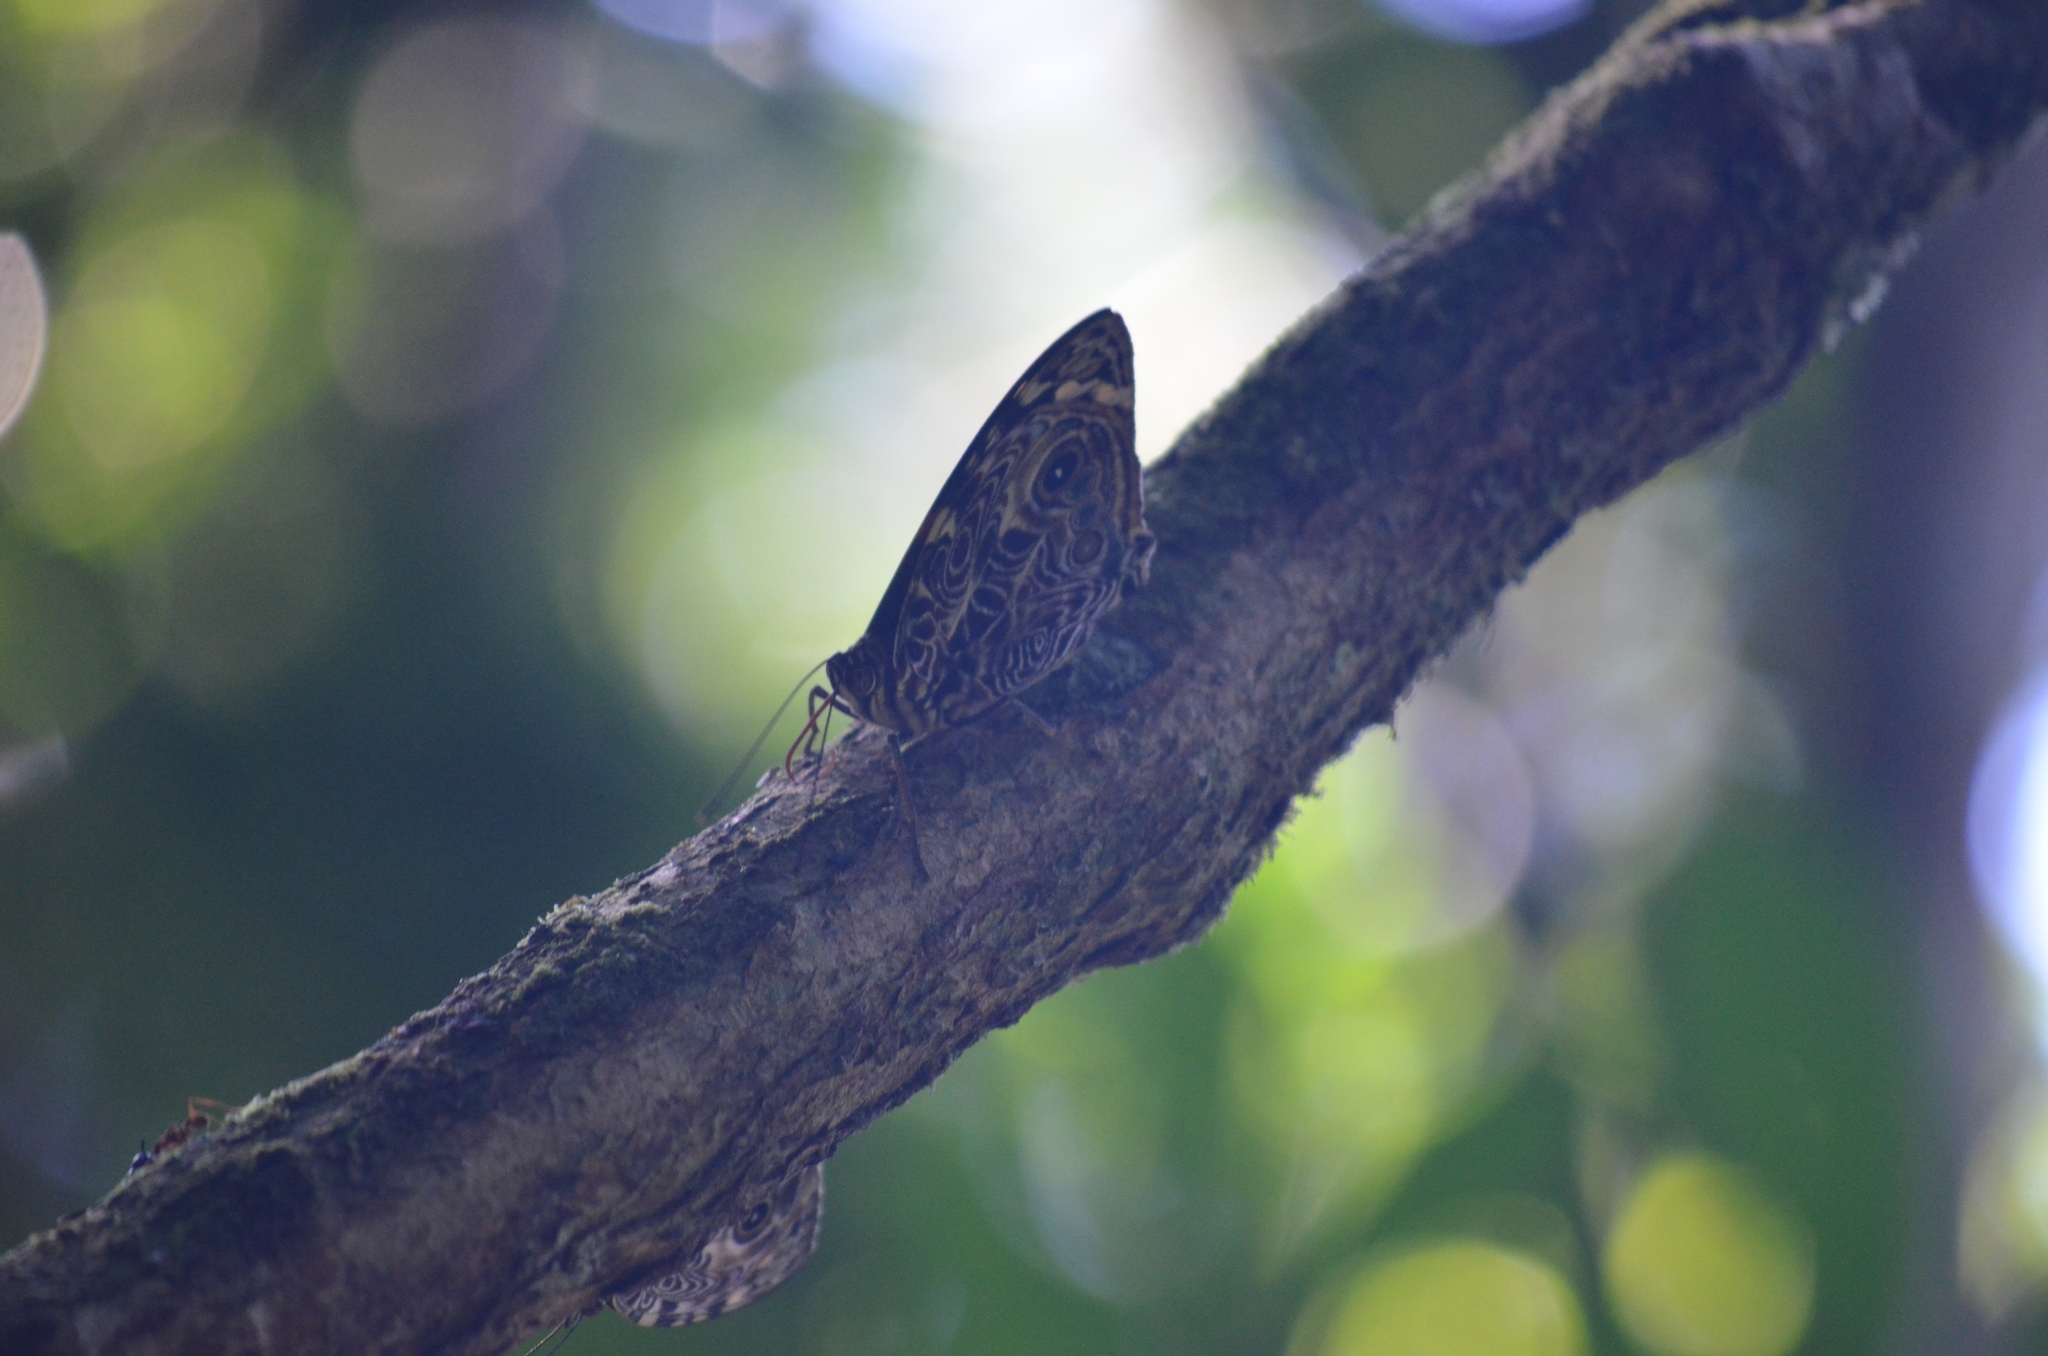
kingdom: Animalia
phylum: Arthropoda
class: Insecta
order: Lepidoptera
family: Nymphalidae
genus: Smyrna
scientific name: Smyrna blomfildia
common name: Blomfild's beauty
